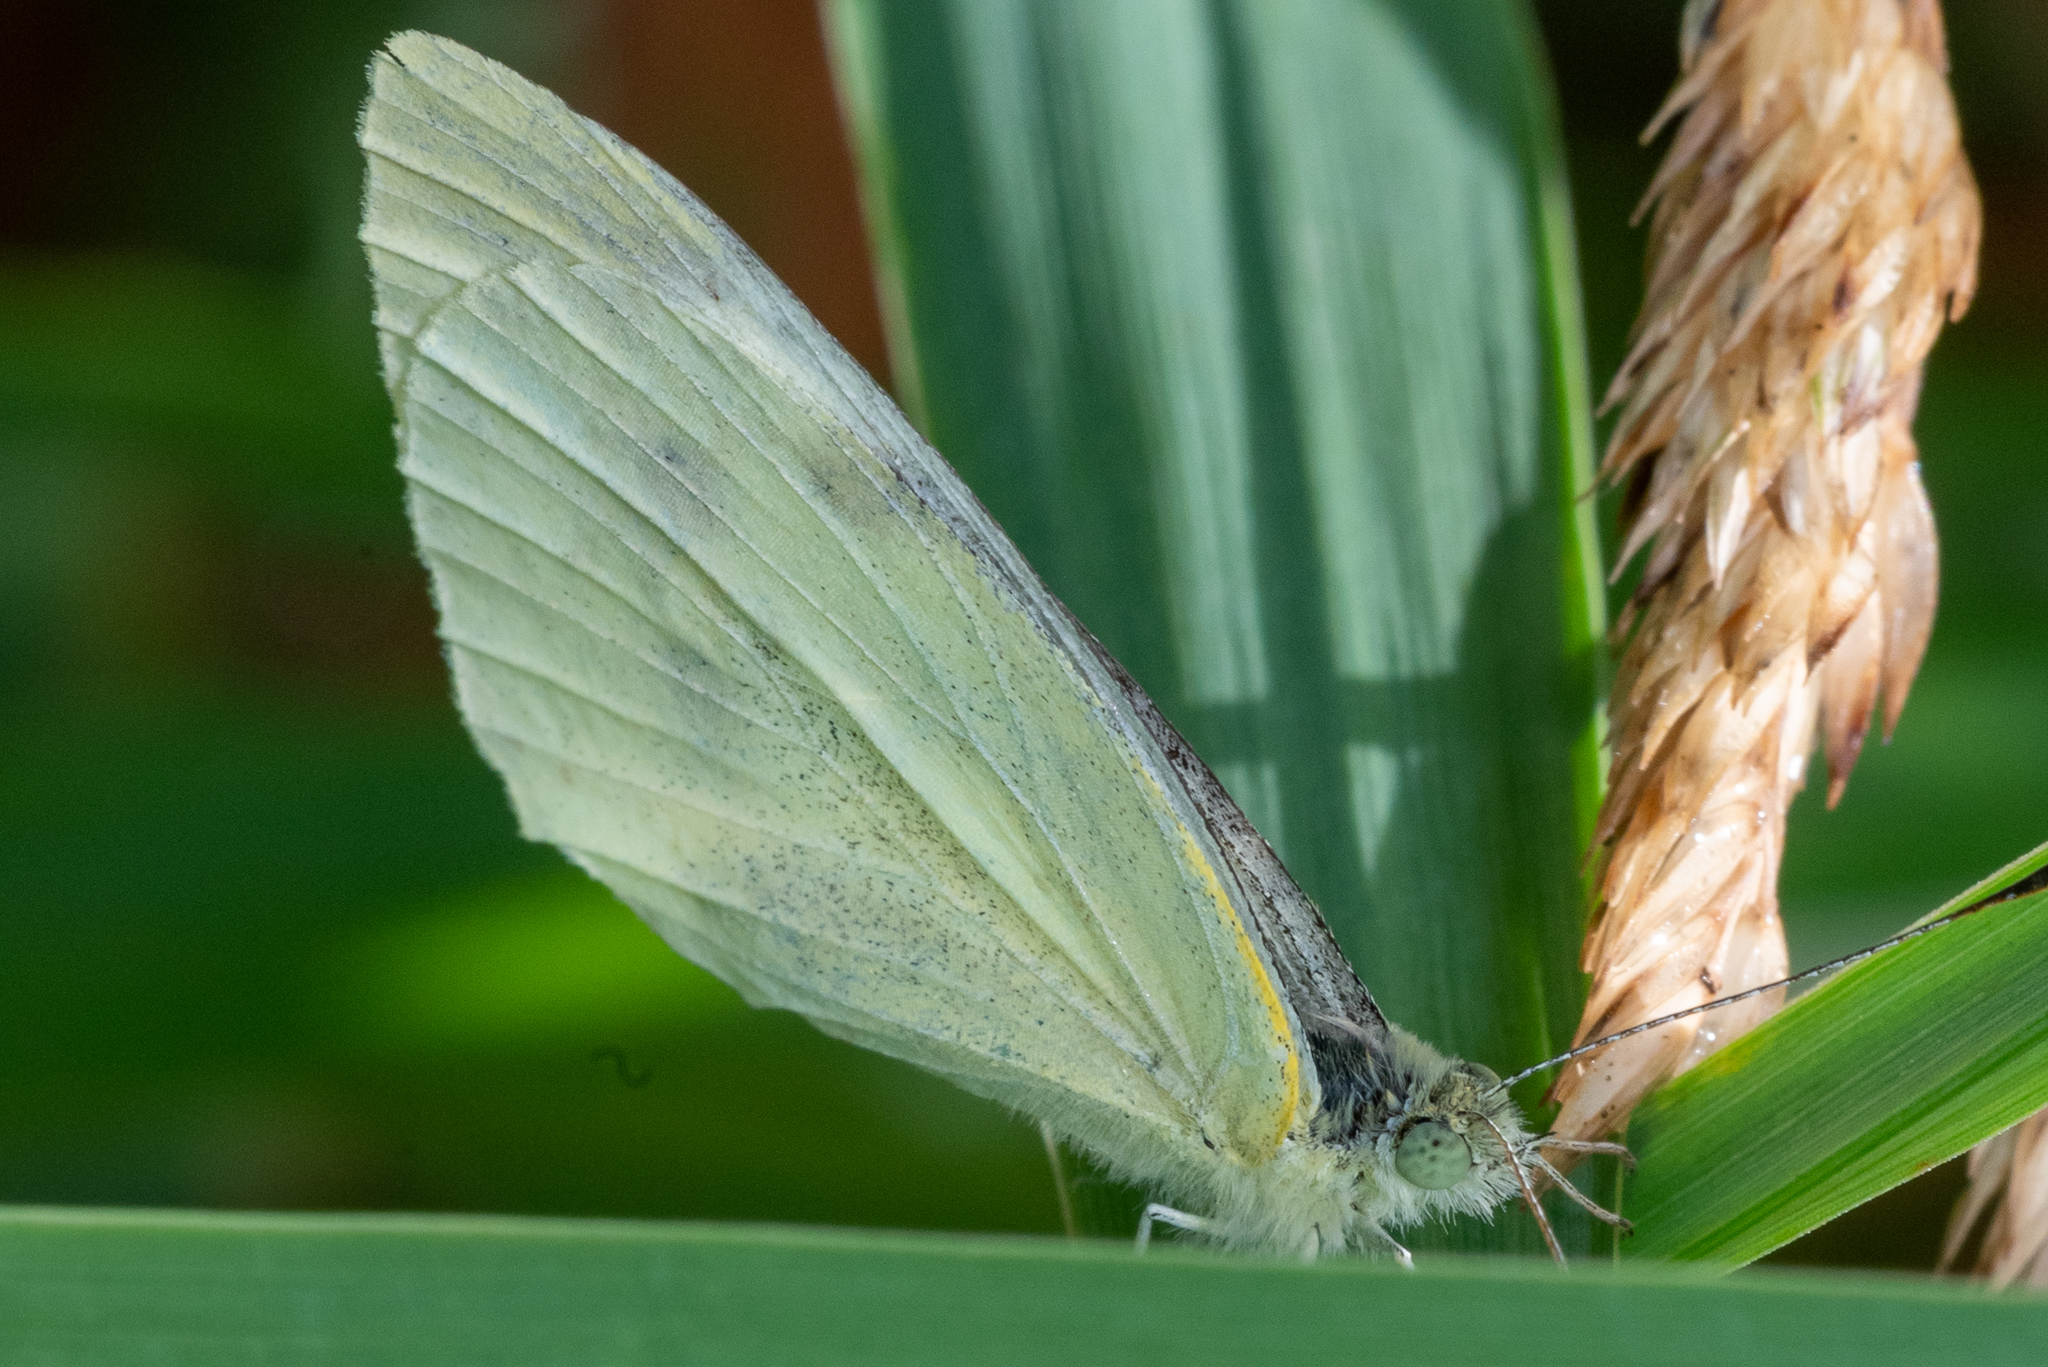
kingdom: Animalia
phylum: Arthropoda
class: Insecta
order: Lepidoptera
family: Pieridae
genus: Pieris
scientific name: Pieris rapae
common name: Small white
